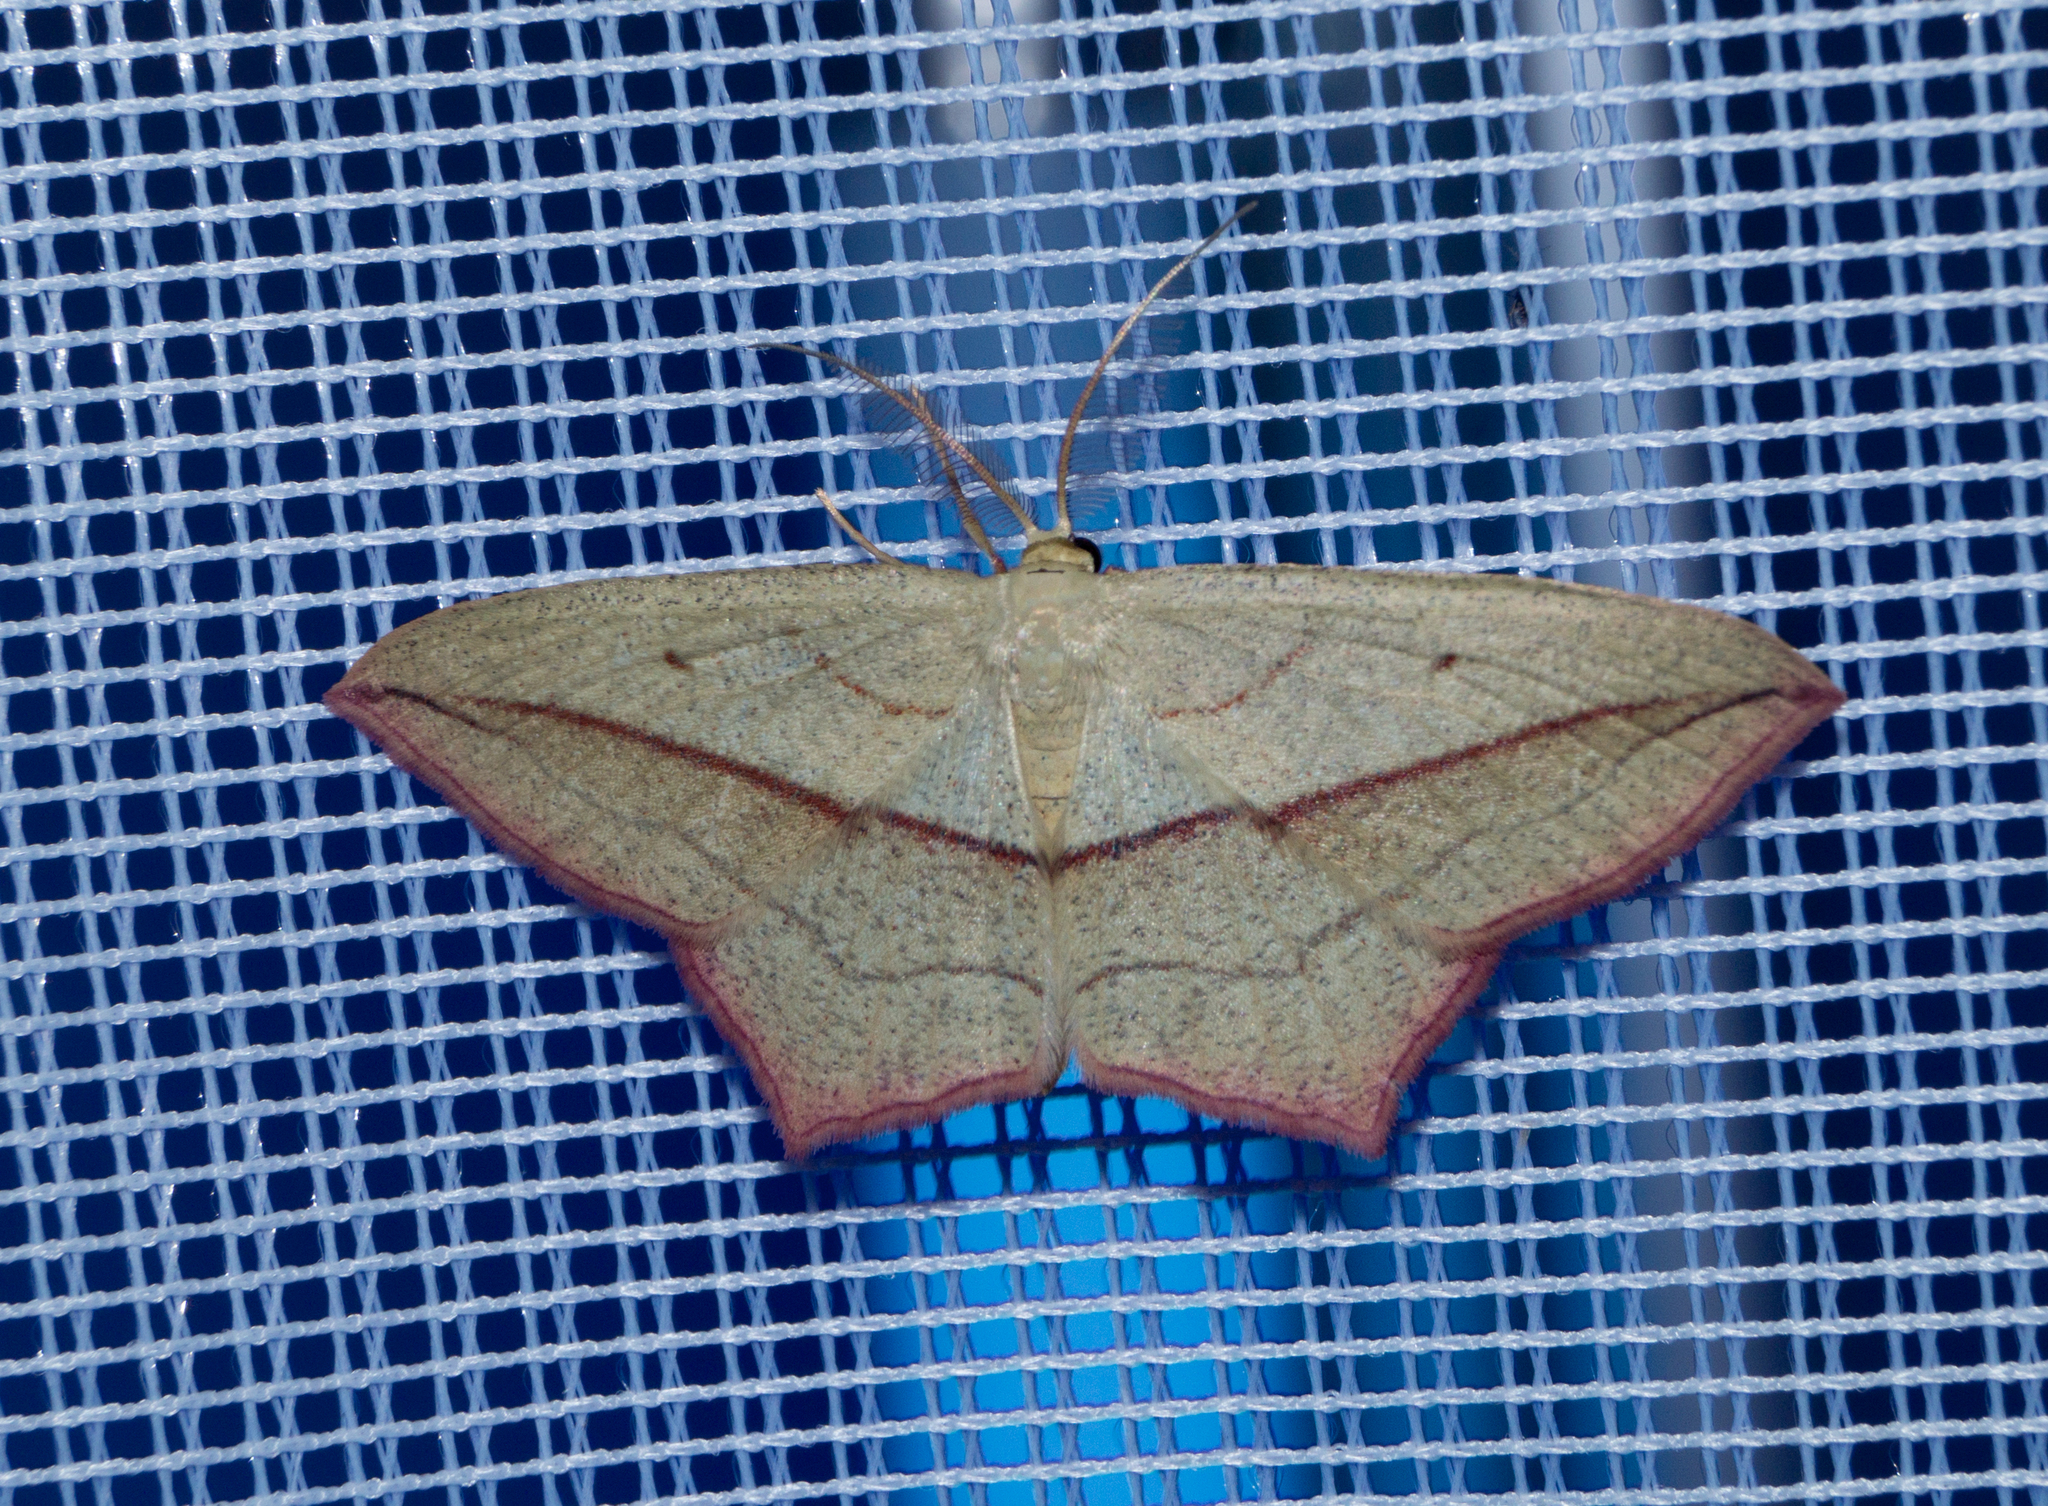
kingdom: Animalia
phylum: Arthropoda
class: Insecta
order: Lepidoptera
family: Geometridae
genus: Timandra
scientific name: Timandra comae
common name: Blood-vein
